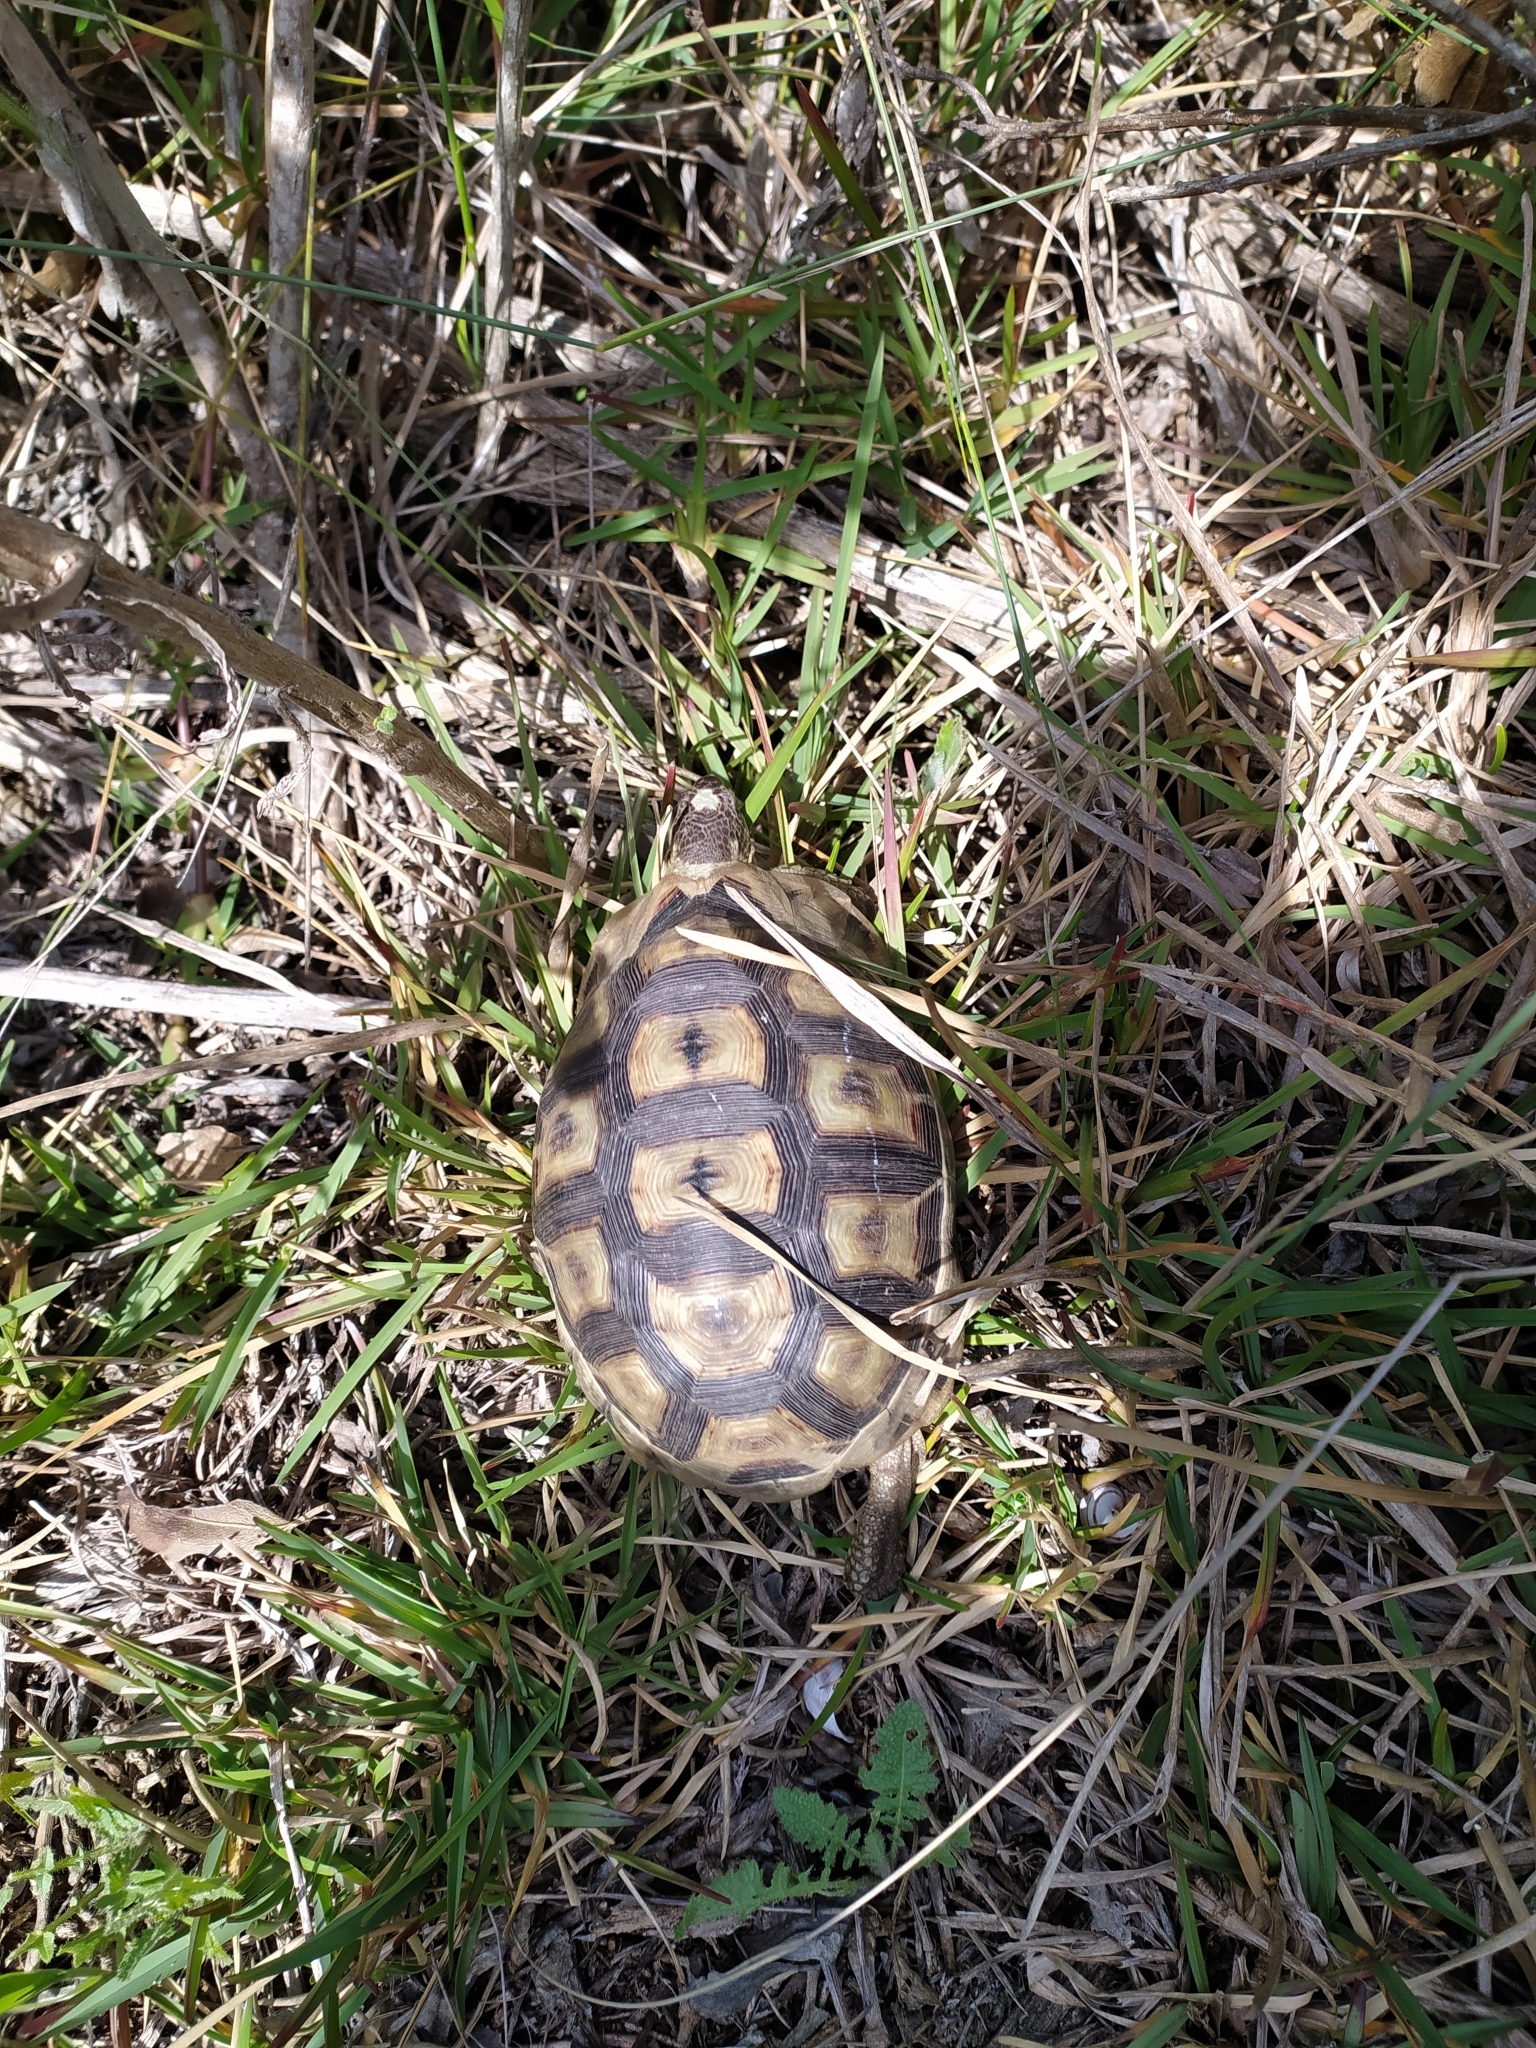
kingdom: Animalia
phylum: Chordata
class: Testudines
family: Testudinidae
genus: Chersina
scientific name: Chersina angulata
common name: South african bowsprit tortoise
